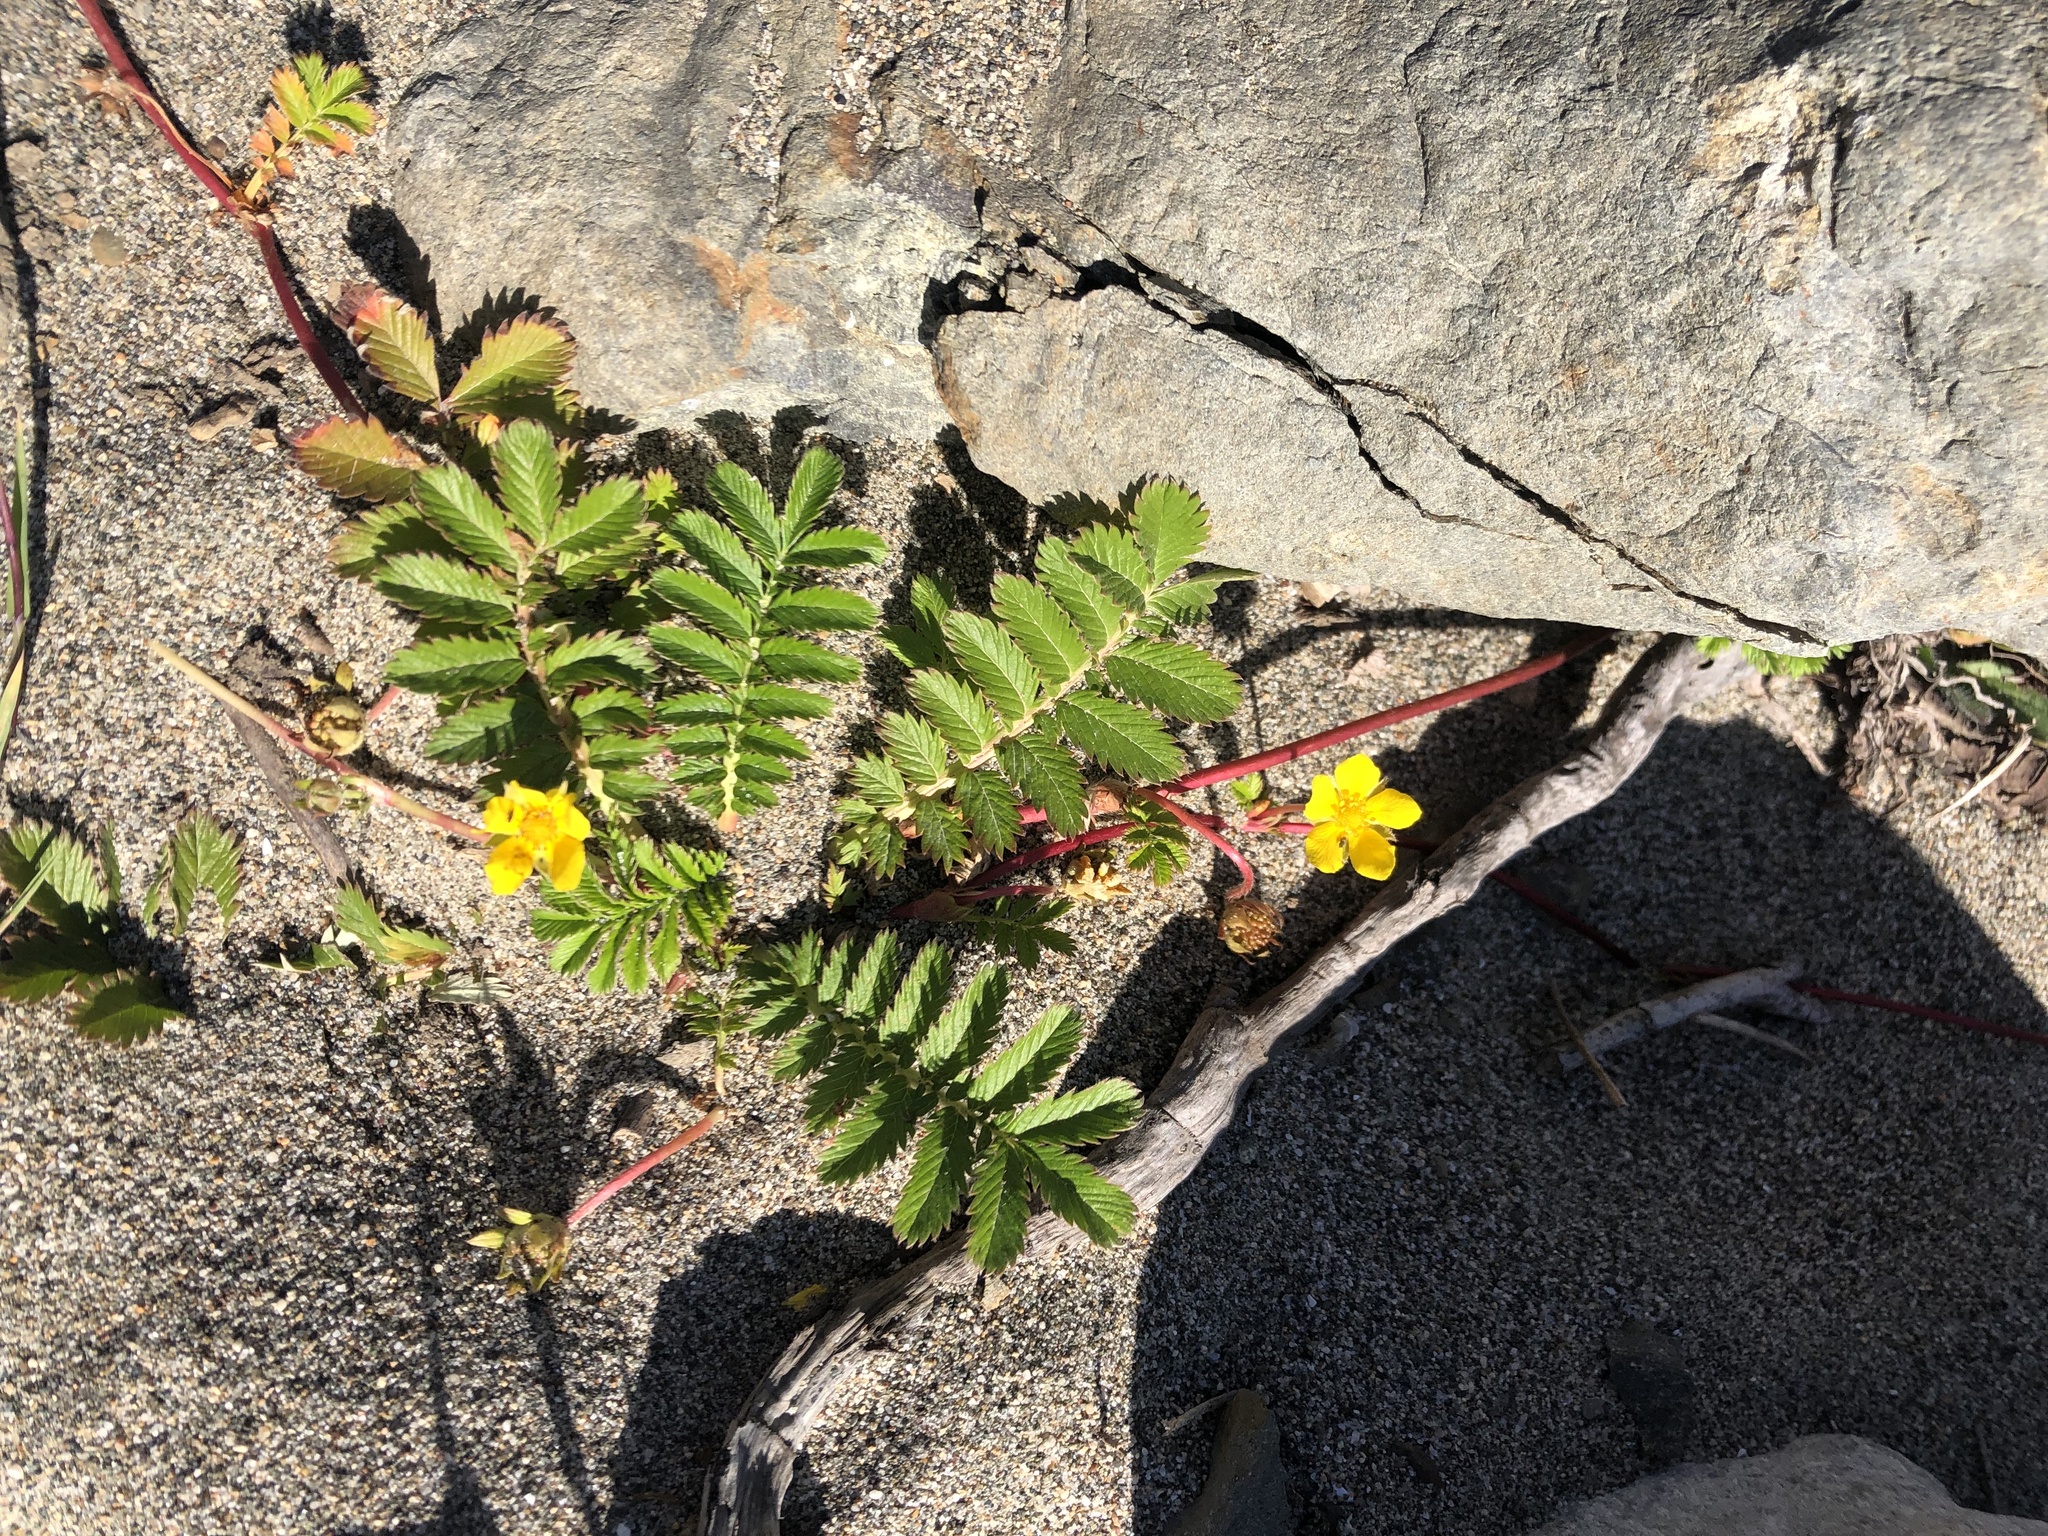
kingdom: Plantae
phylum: Tracheophyta
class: Magnoliopsida
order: Rosales
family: Rosaceae
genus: Argentina
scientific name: Argentina anserina
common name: Common silverweed
